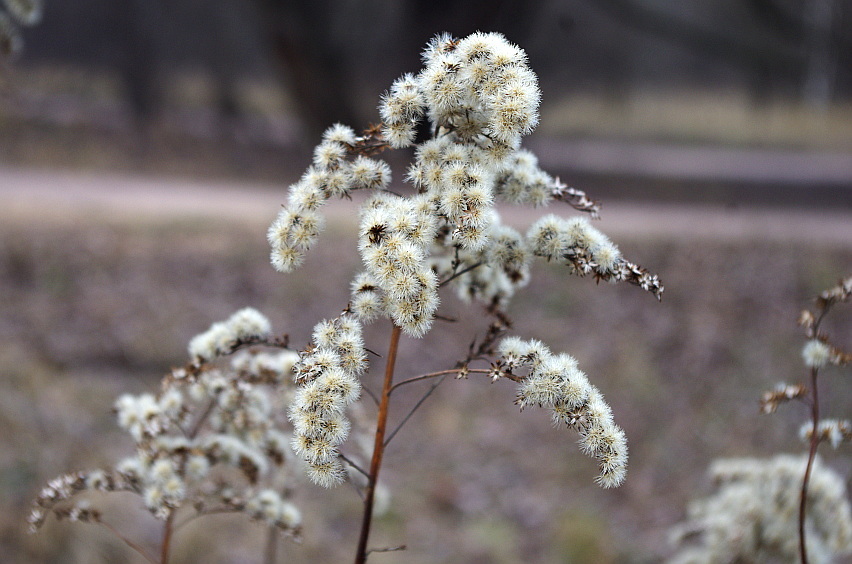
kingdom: Plantae
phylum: Tracheophyta
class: Magnoliopsida
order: Asterales
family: Asteraceae
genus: Solidago
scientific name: Solidago gigantea
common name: Giant goldenrod
